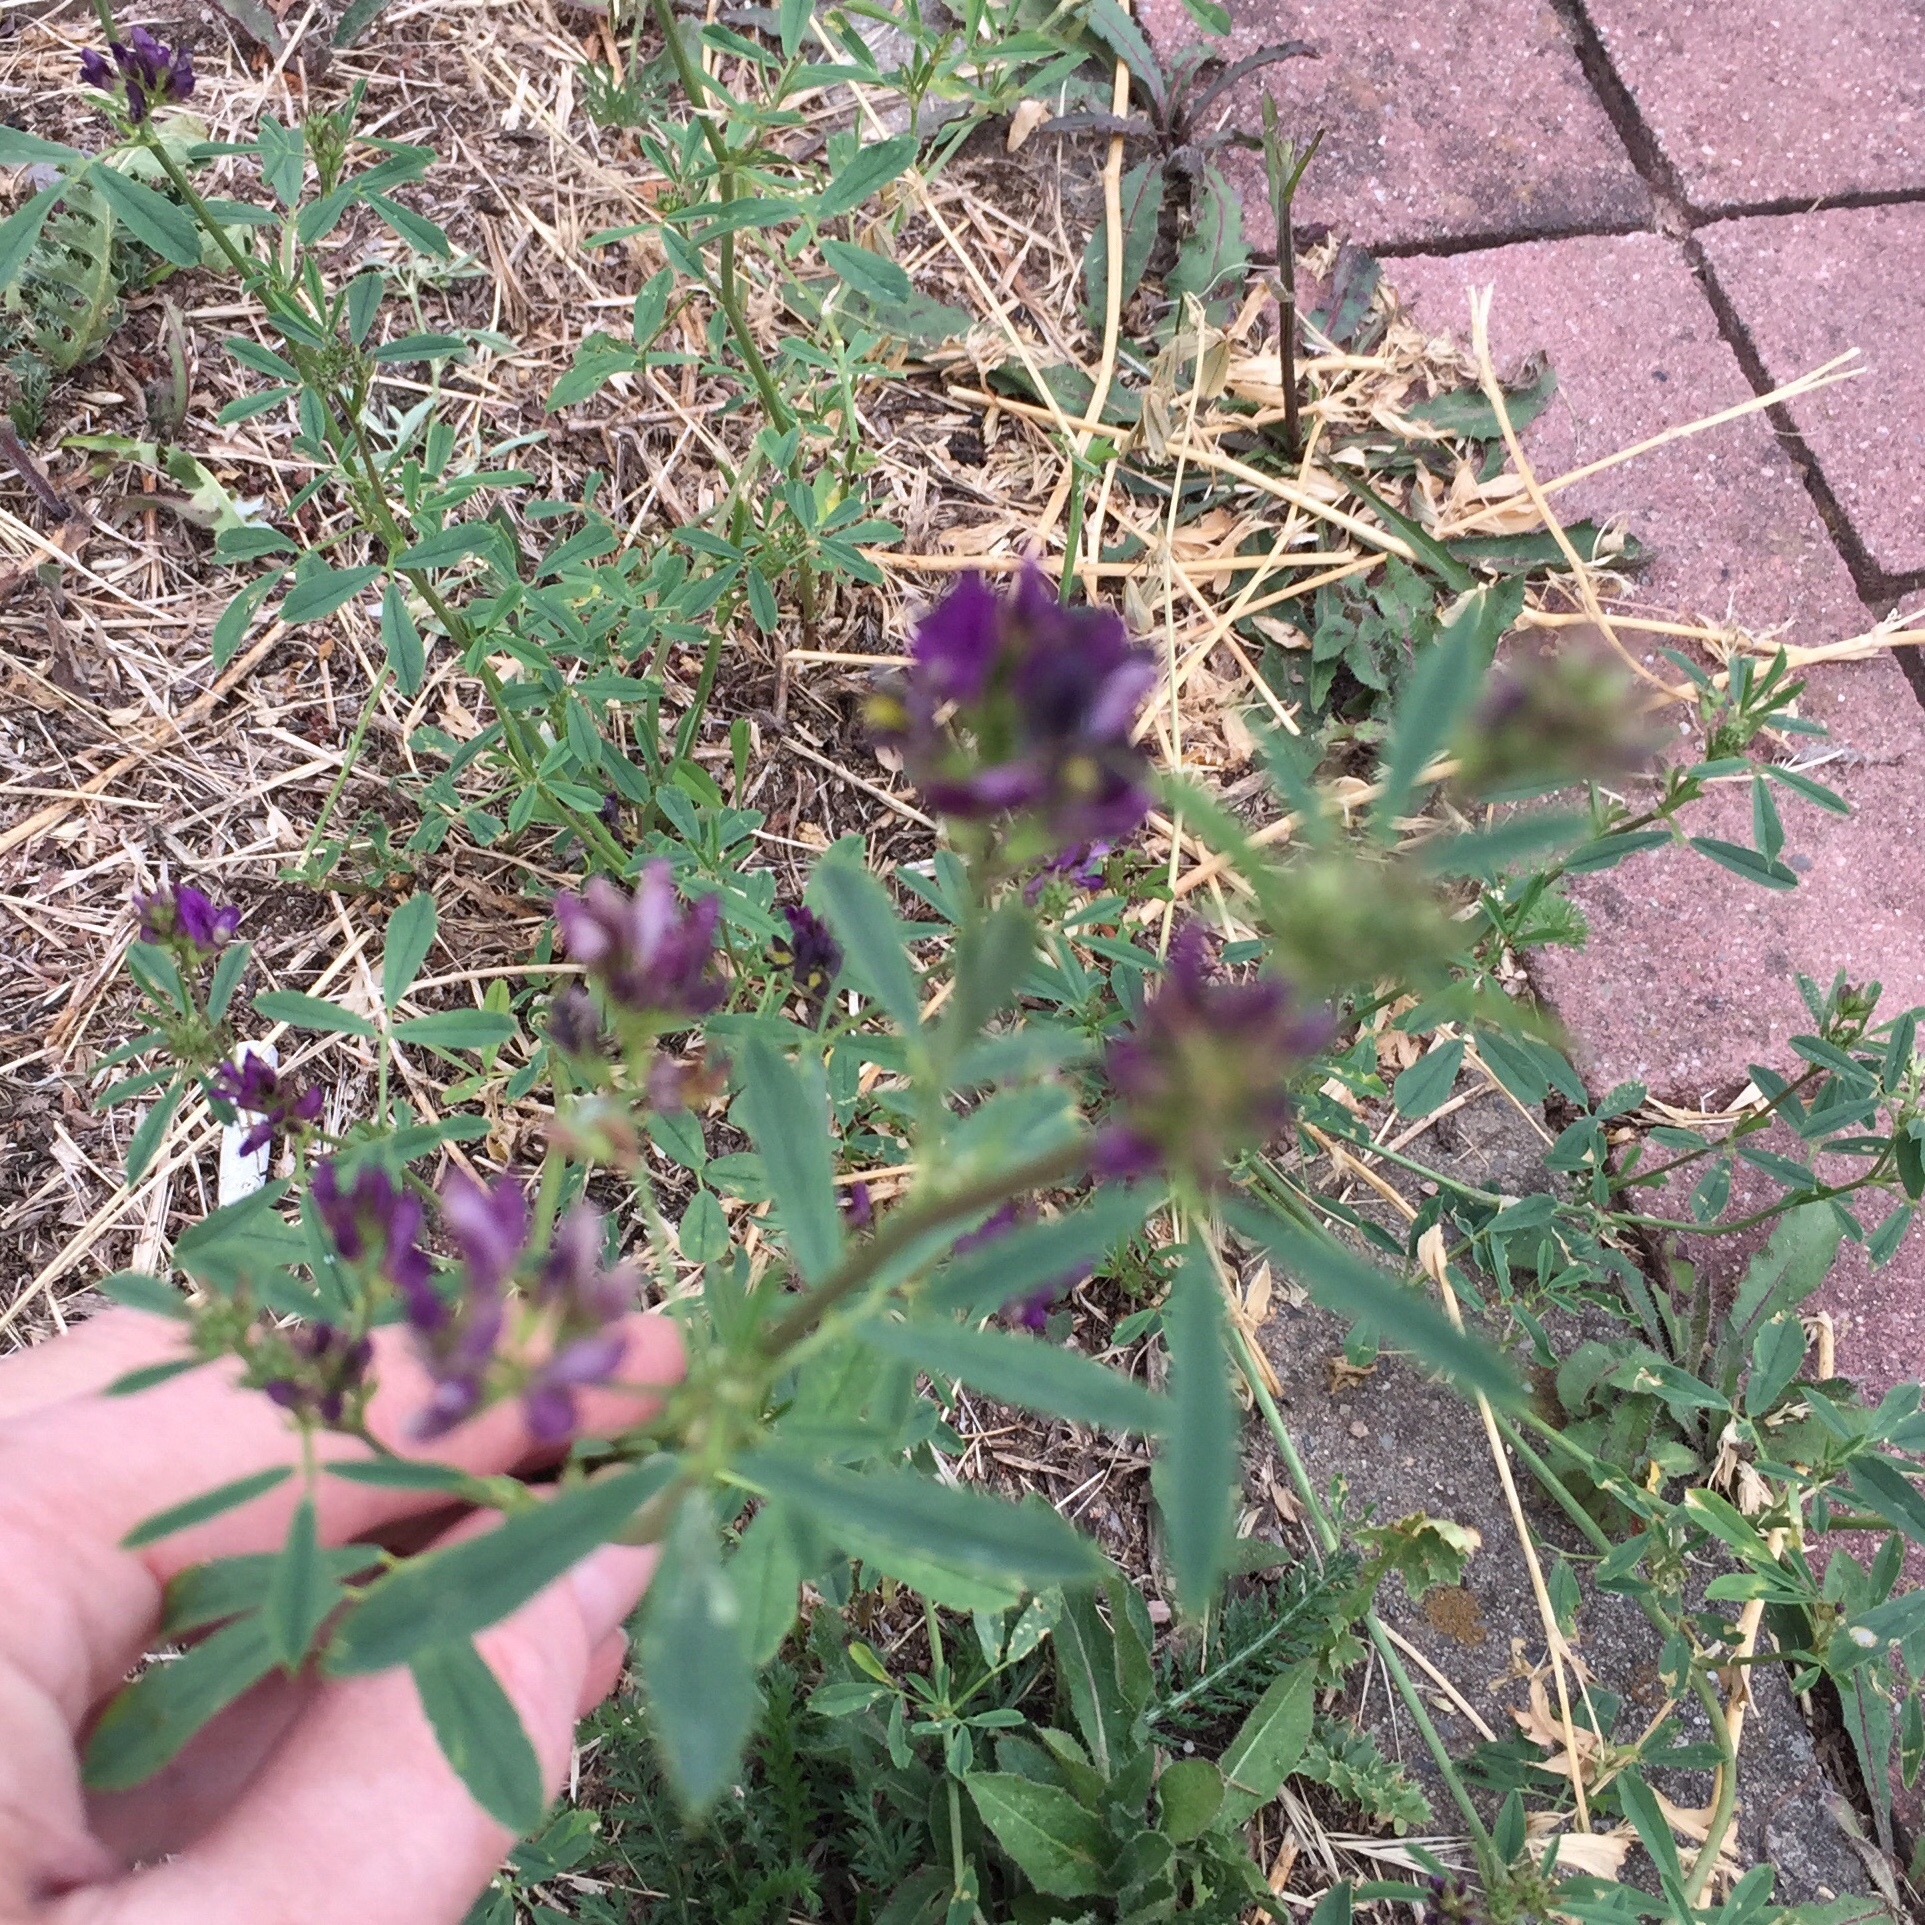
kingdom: Plantae
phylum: Tracheophyta
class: Magnoliopsida
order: Fabales
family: Fabaceae
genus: Medicago
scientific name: Medicago sativa
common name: Alfalfa
